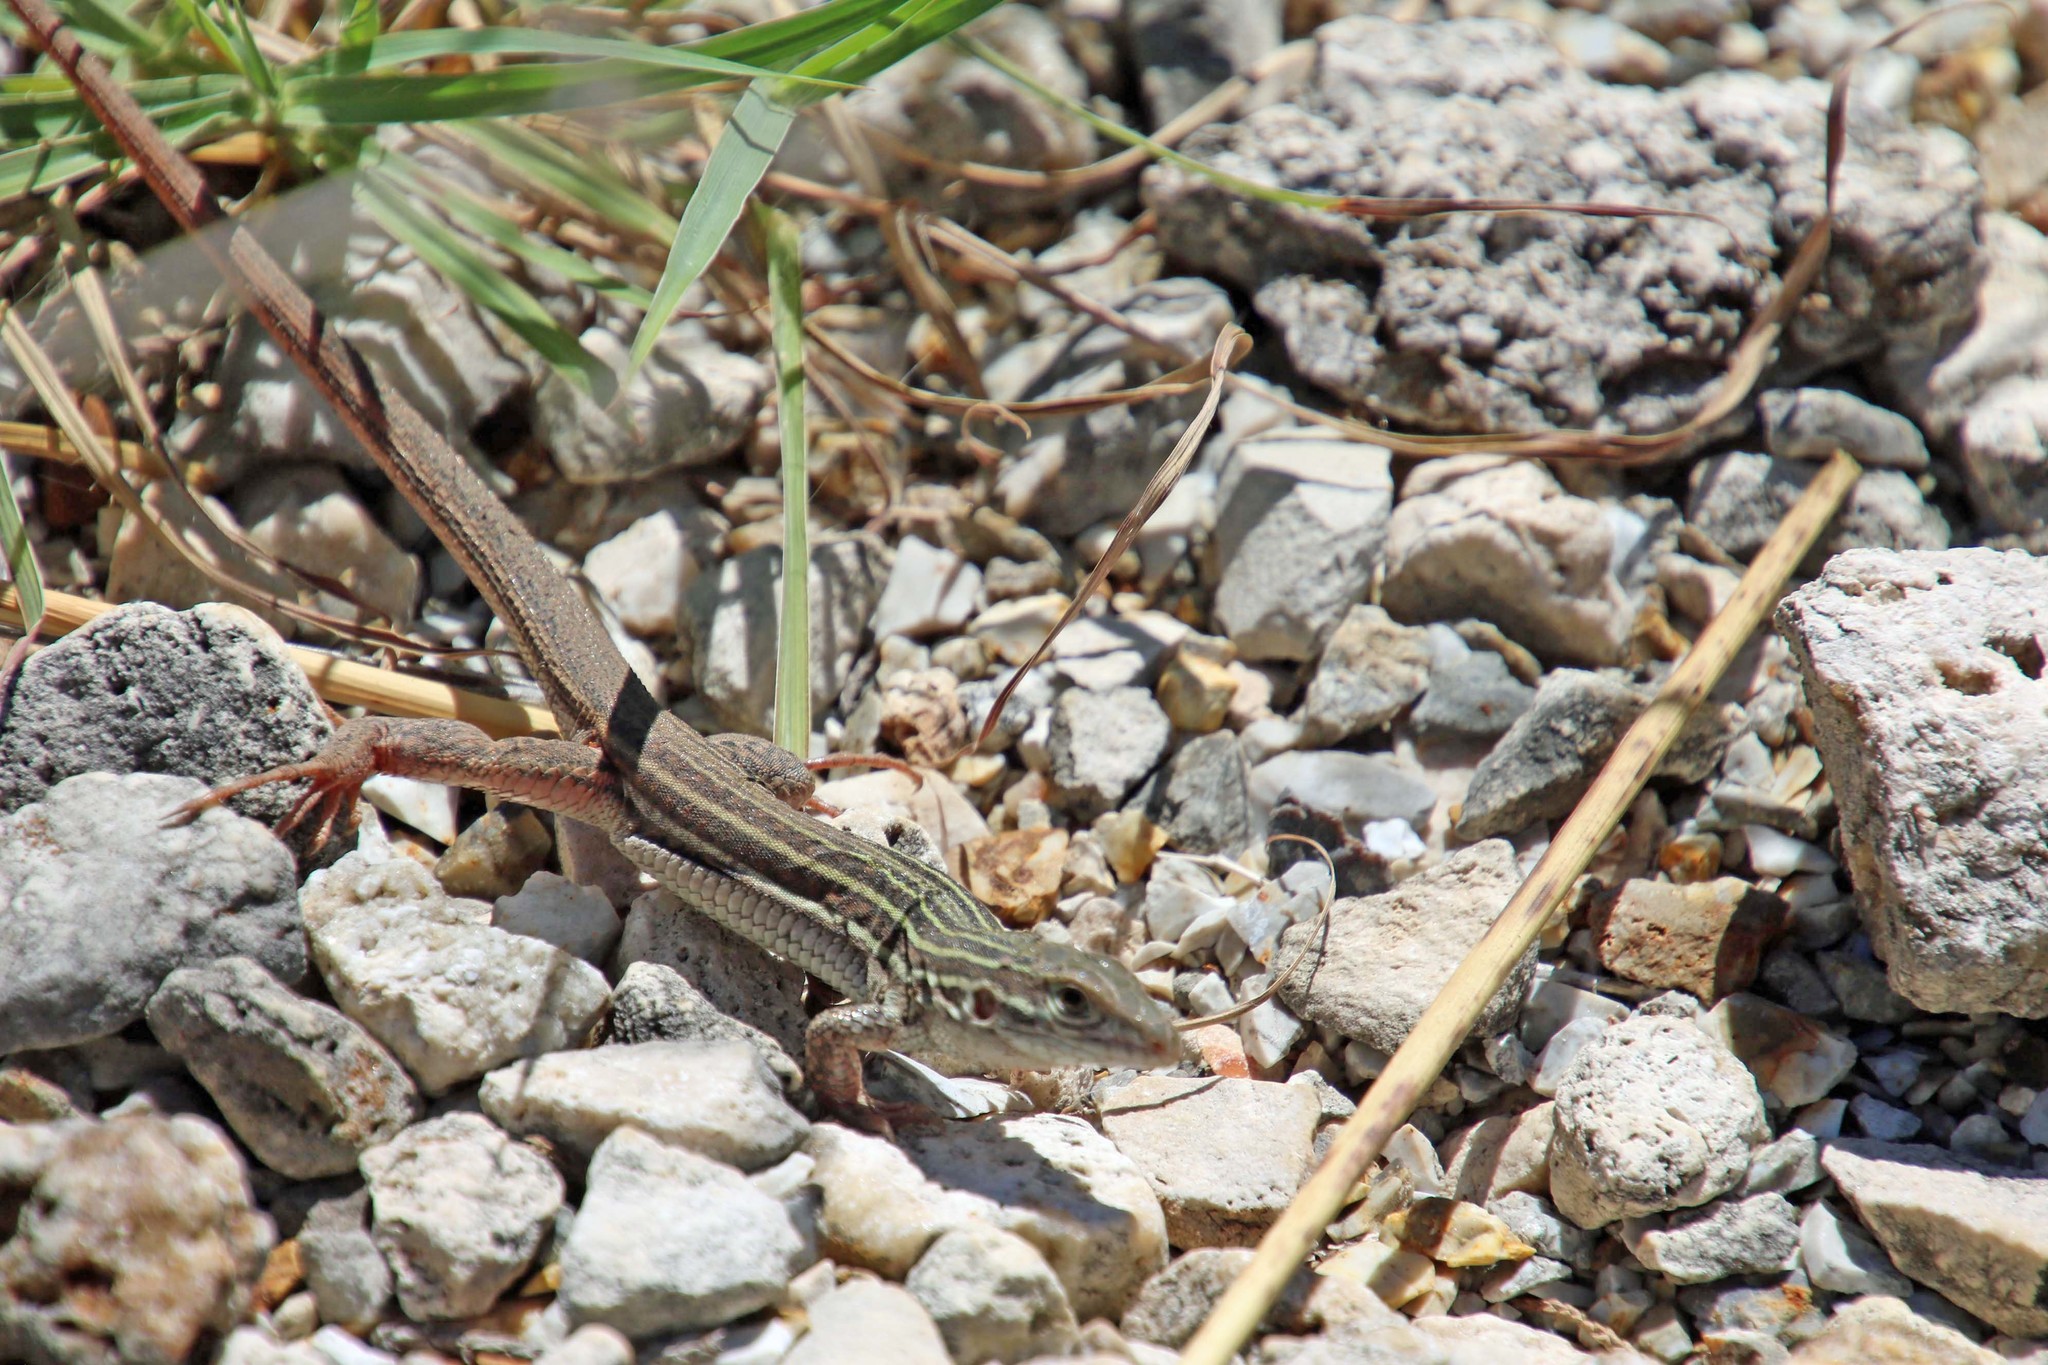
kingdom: Animalia
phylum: Chordata
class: Squamata
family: Teiidae
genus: Aspidoscelis
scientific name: Aspidoscelis gularis
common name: Eastern spotted whiptail
